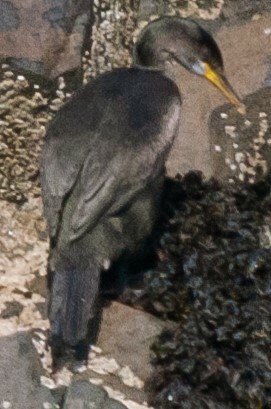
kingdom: Animalia
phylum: Chordata
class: Aves
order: Suliformes
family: Phalacrocoracidae
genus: Phalacrocorax
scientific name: Phalacrocorax aristotelis
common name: European shag
